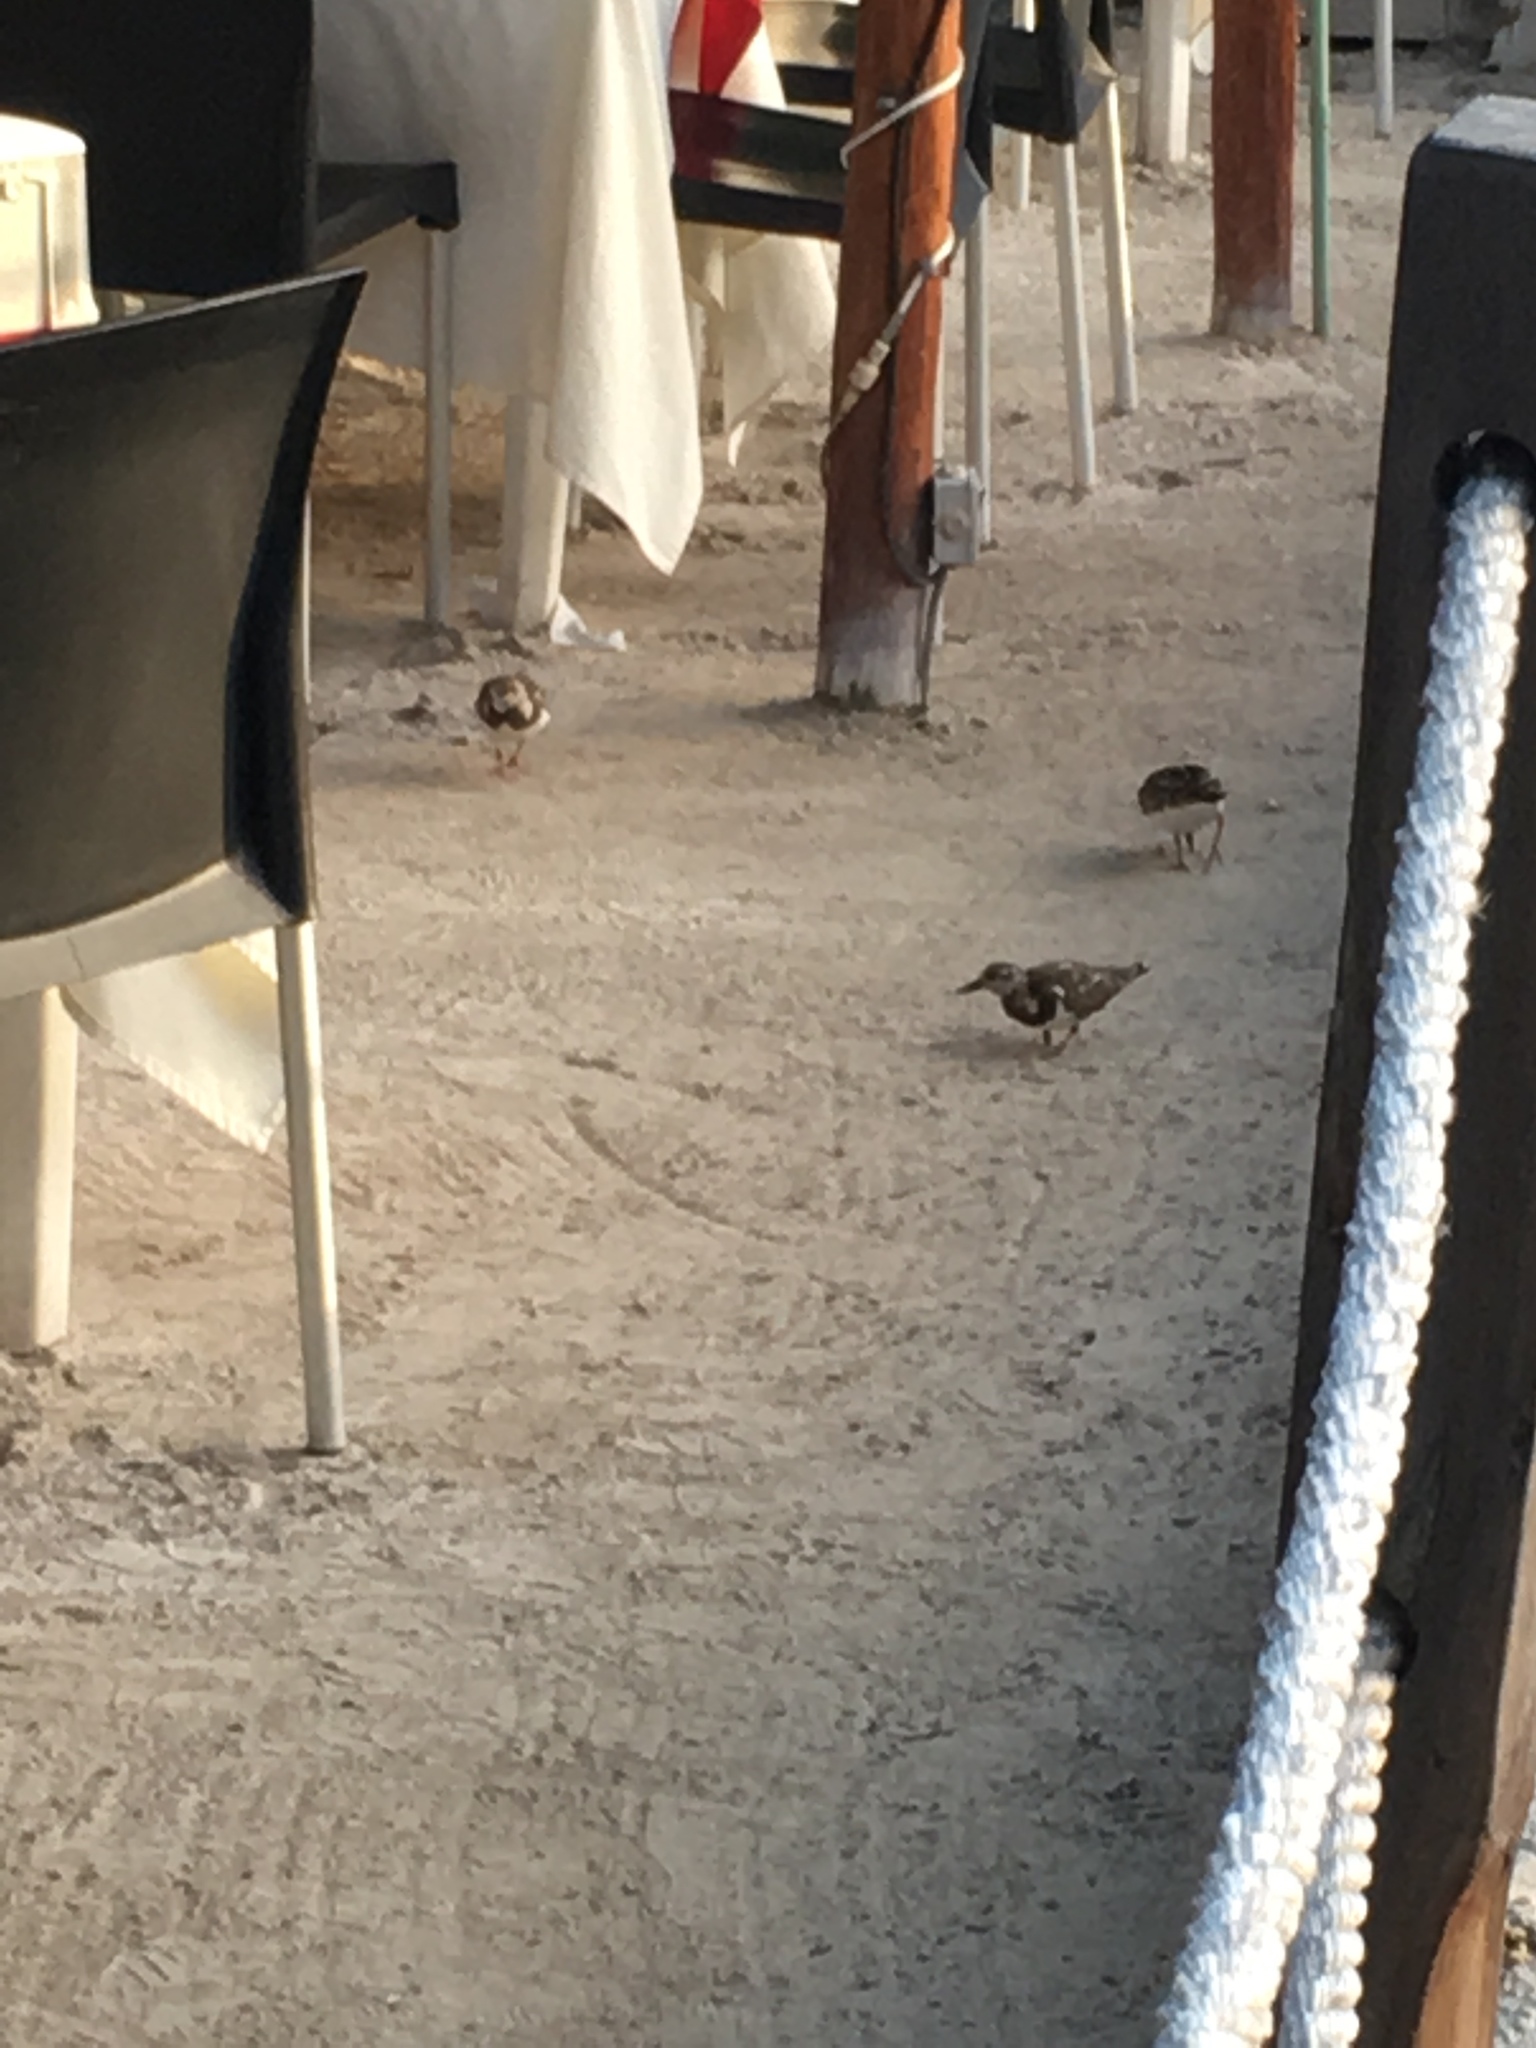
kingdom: Animalia
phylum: Chordata
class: Aves
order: Charadriiformes
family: Scolopacidae
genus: Arenaria
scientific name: Arenaria interpres
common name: Ruddy turnstone
